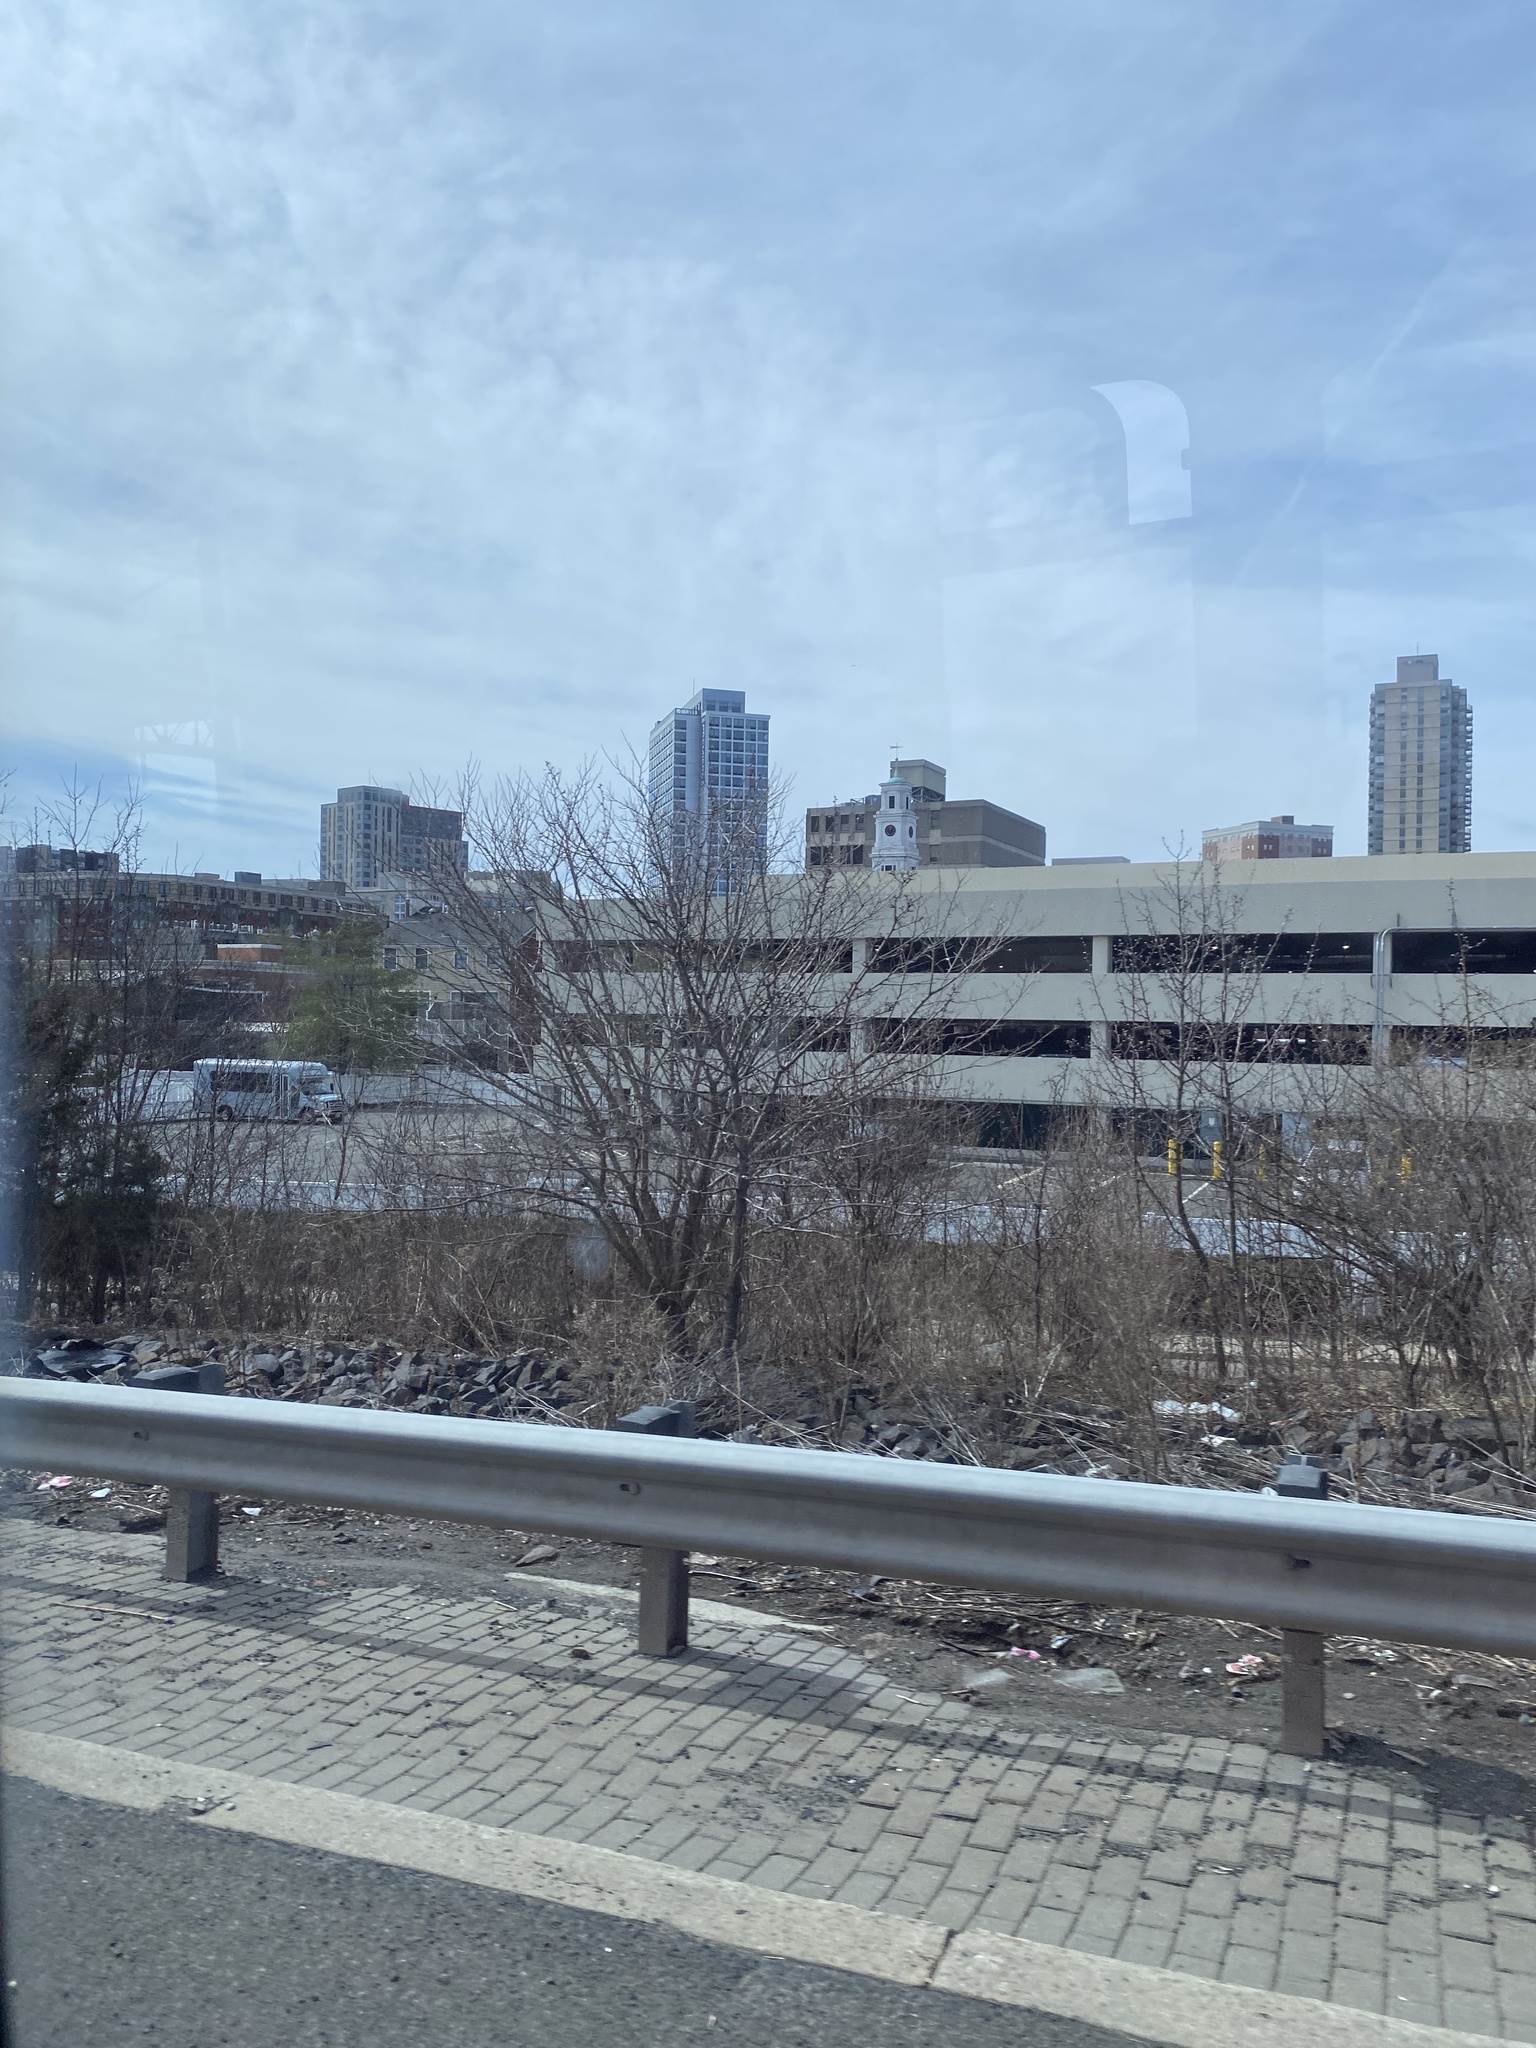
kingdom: Plantae
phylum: Tracheophyta
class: Magnoliopsida
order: Rosales
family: Rosaceae
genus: Pyrus
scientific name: Pyrus calleryana
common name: Callery pear
